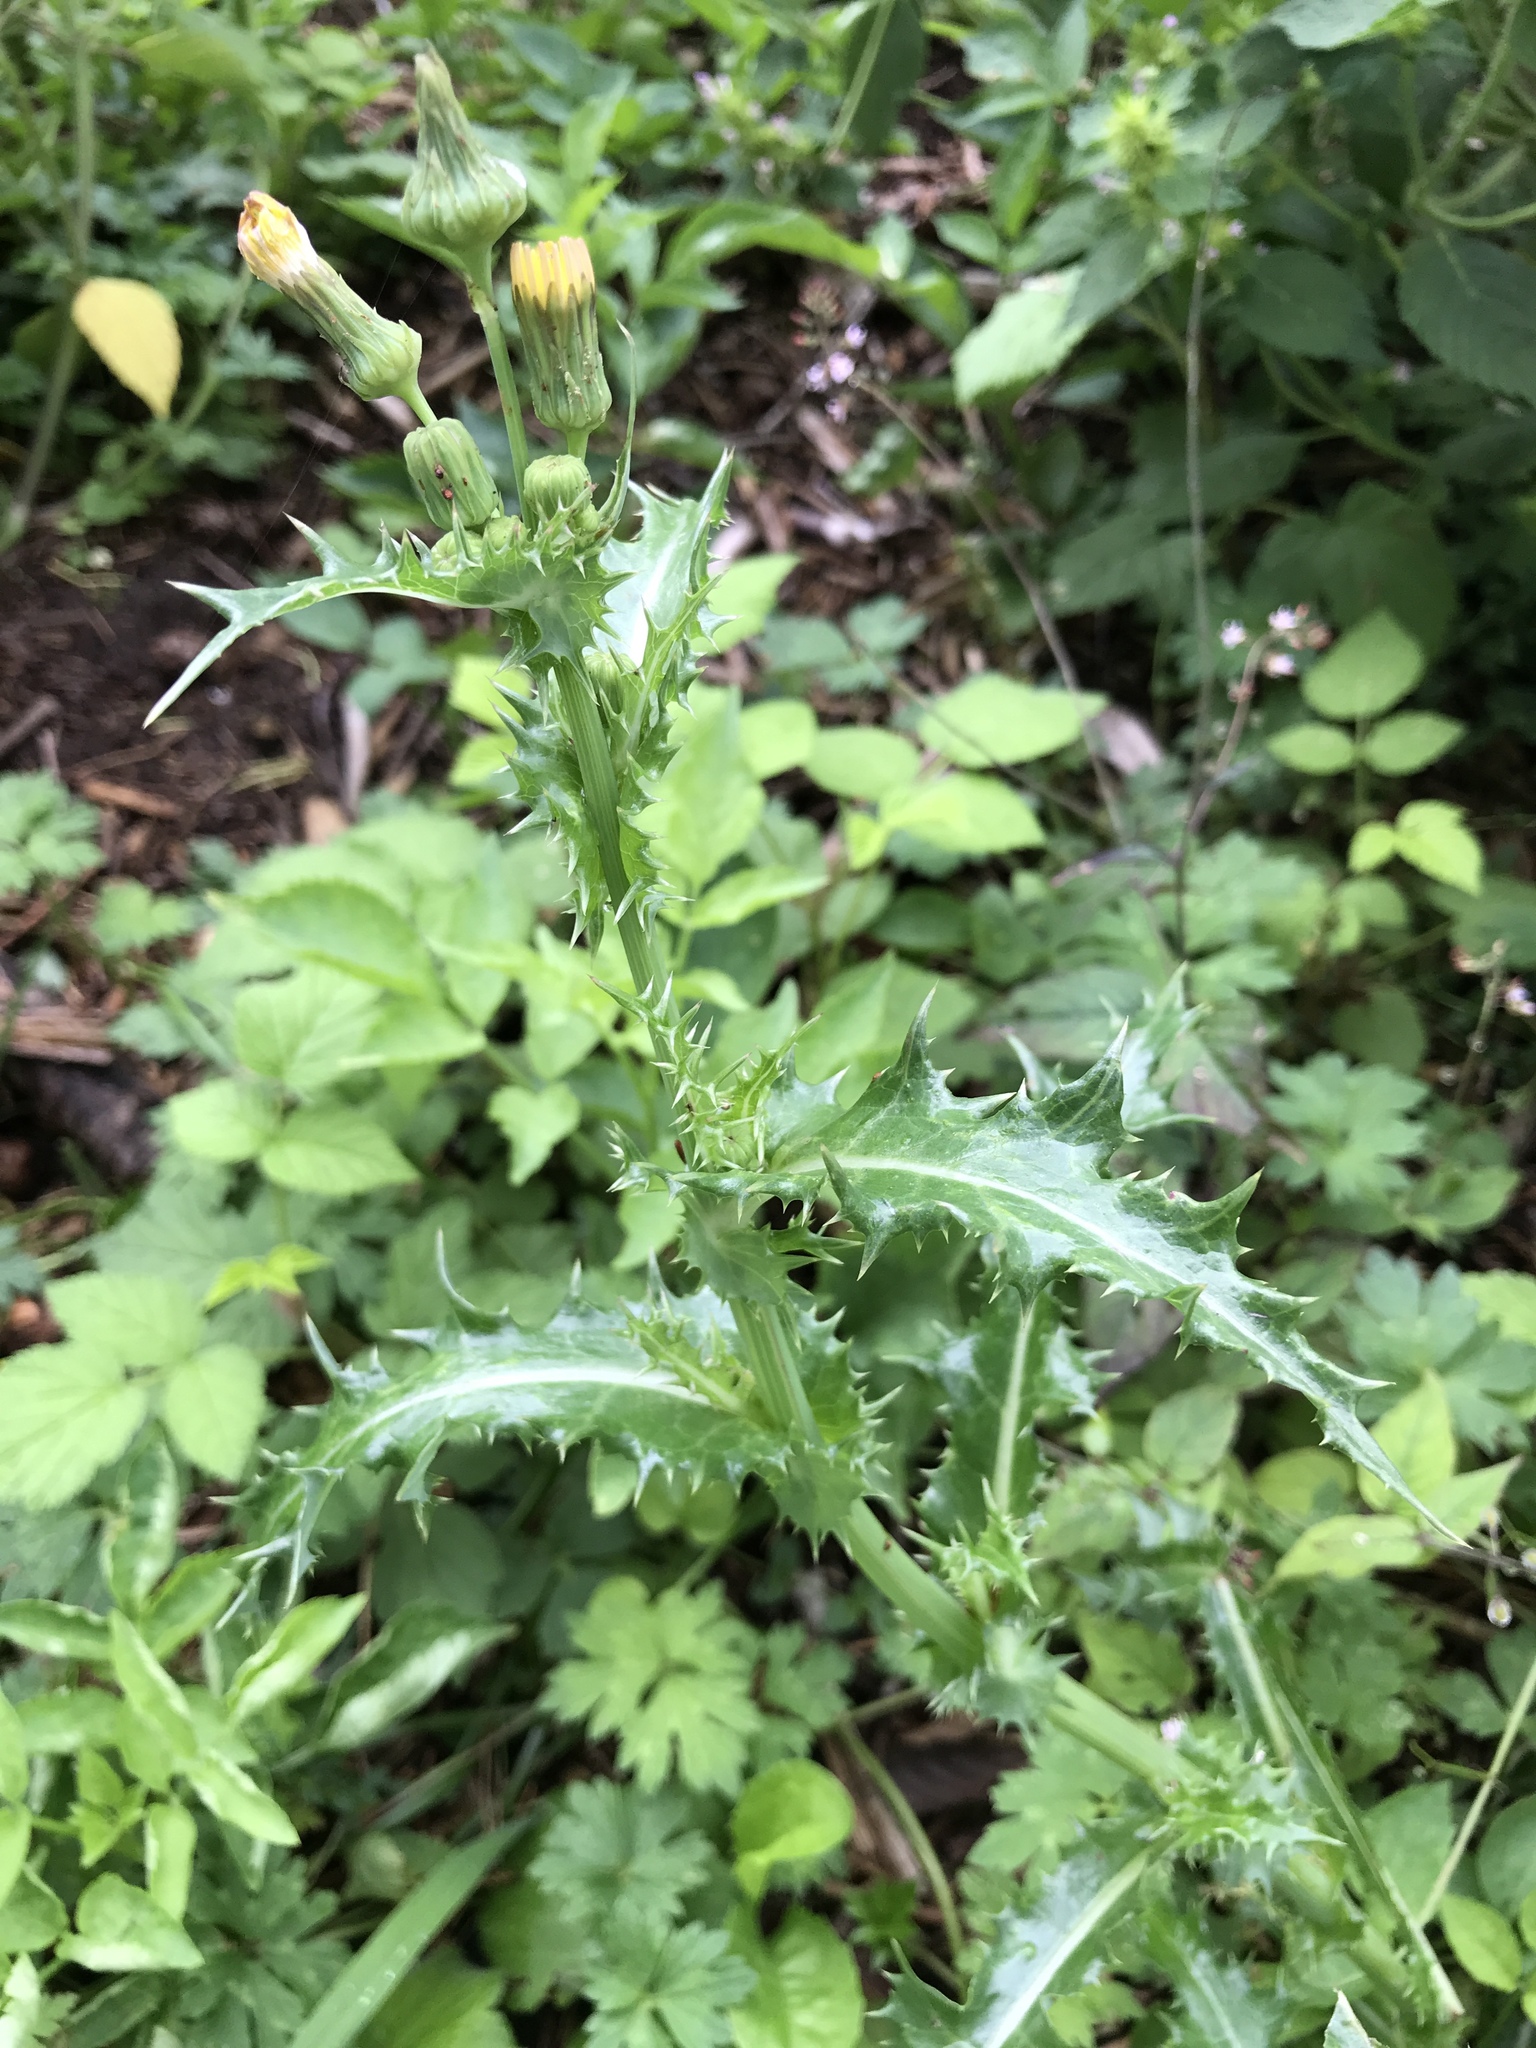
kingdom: Plantae
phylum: Tracheophyta
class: Magnoliopsida
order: Asterales
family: Asteraceae
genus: Sonchus
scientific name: Sonchus asper
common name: Prickly sow-thistle
